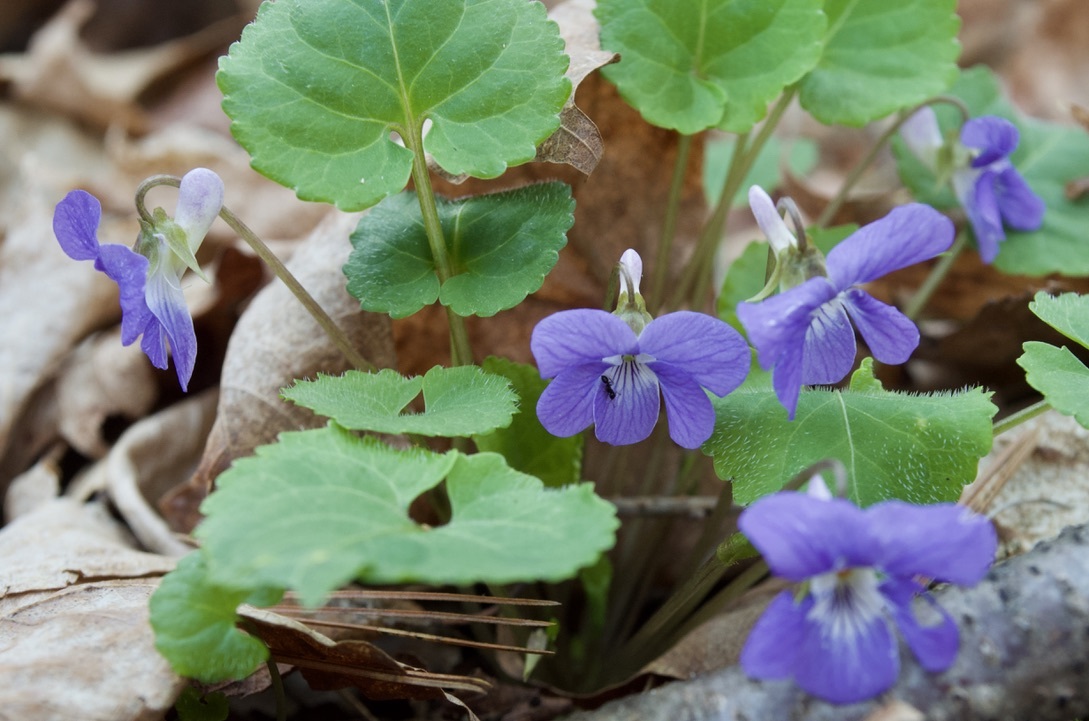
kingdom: Plantae
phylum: Tracheophyta
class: Magnoliopsida
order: Malpighiales
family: Violaceae
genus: Viola
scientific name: Viola selkirkii
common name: Selkirk's violet
